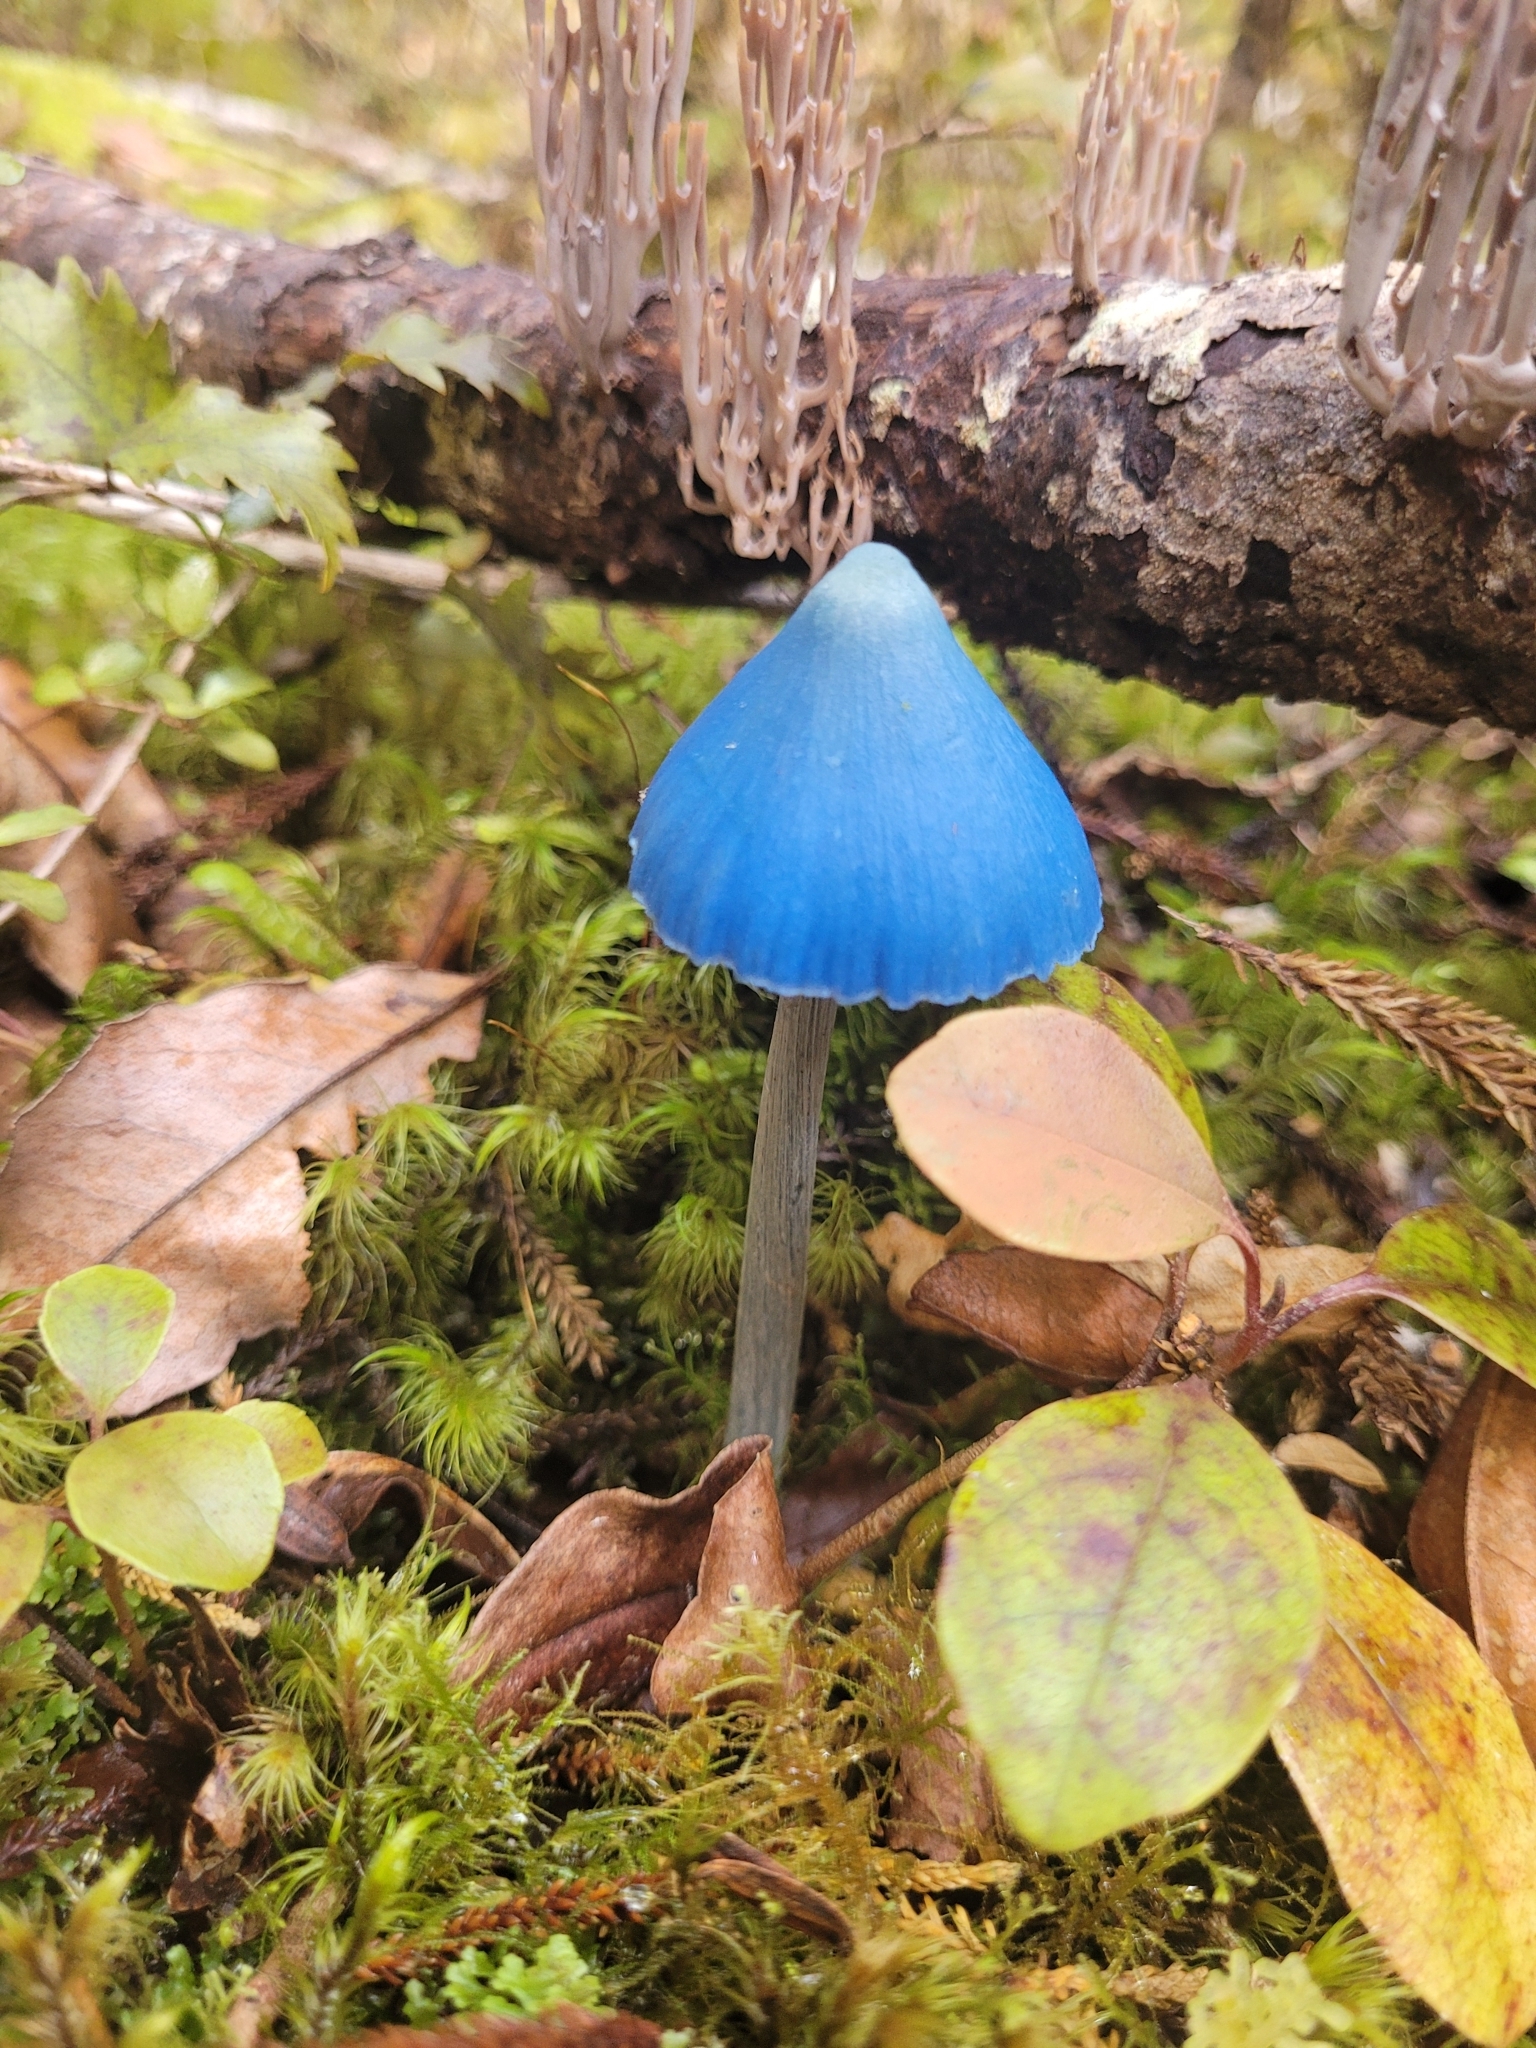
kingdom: Fungi
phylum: Basidiomycota
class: Agaricomycetes
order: Agaricales
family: Entolomataceae
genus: Entoloma
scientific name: Entoloma hochstetteri
